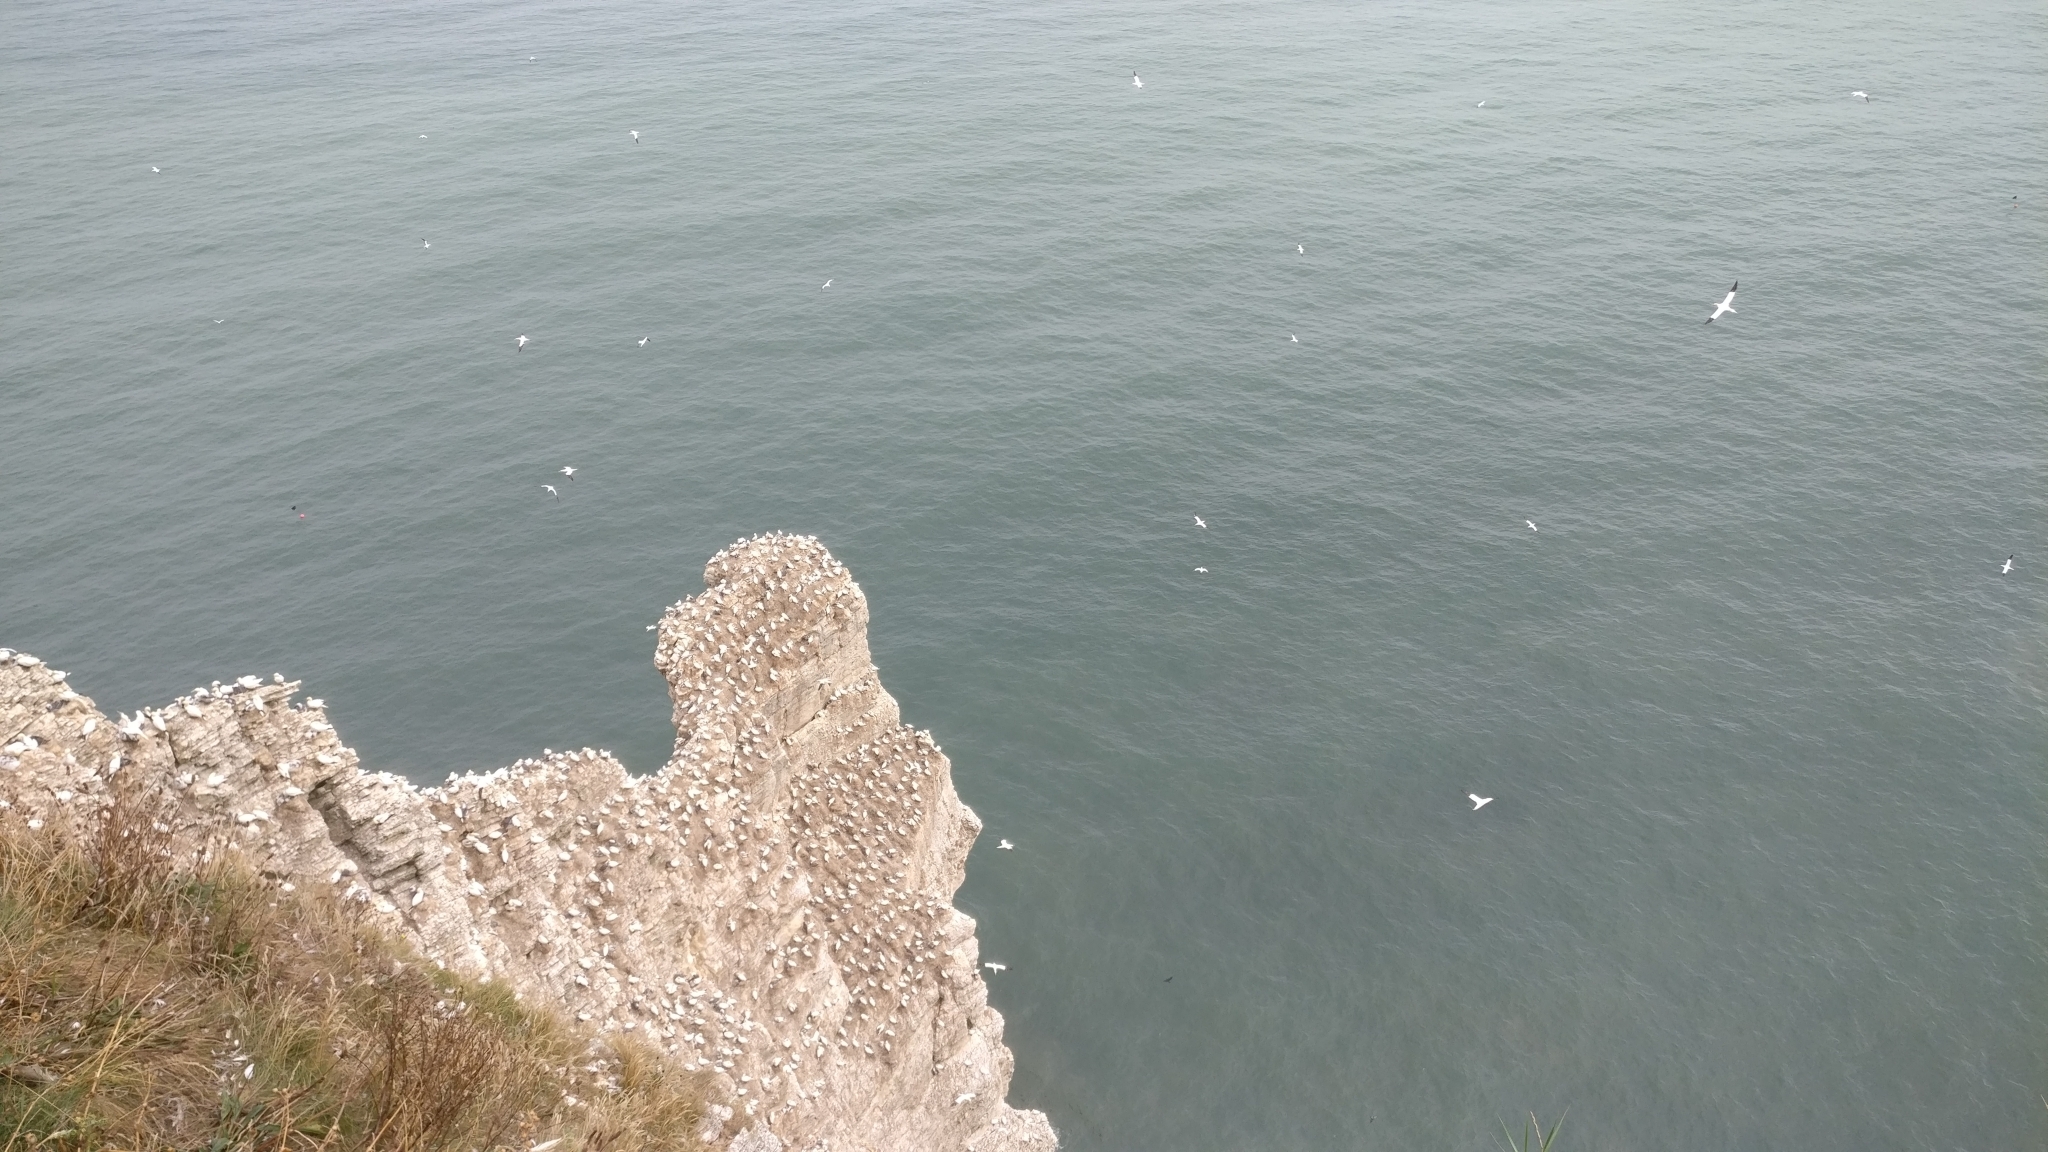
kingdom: Animalia
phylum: Chordata
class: Aves
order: Suliformes
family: Sulidae
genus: Morus
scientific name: Morus bassanus
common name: Northern gannet
